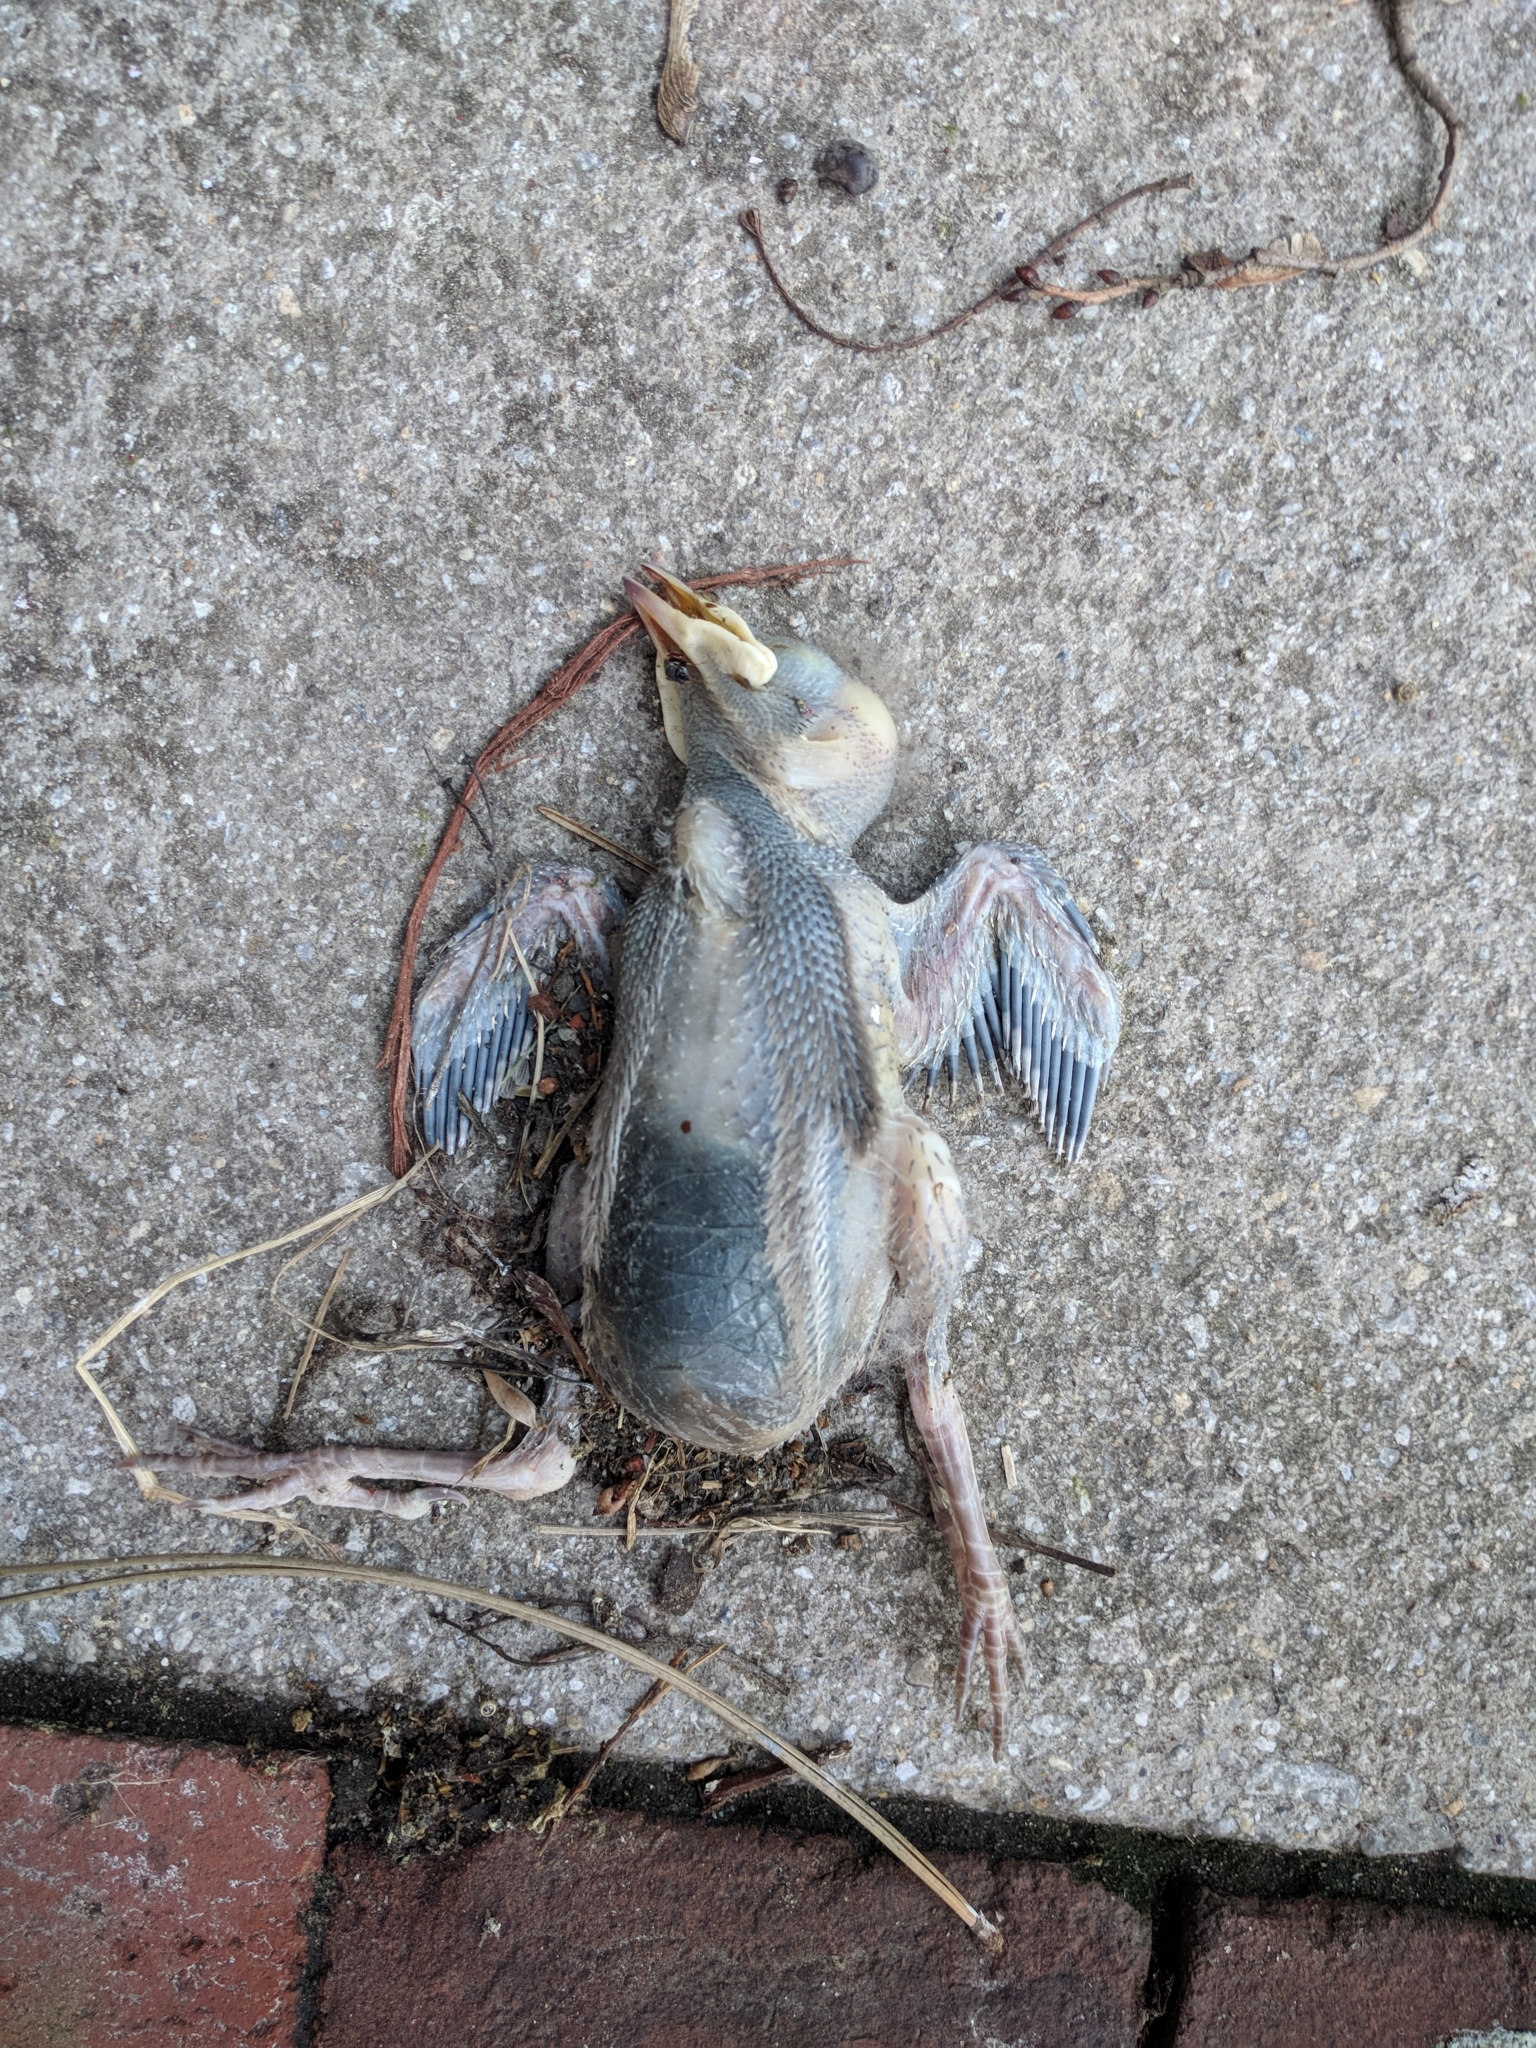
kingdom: Animalia
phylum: Chordata
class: Aves
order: Passeriformes
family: Sturnidae
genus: Sturnus
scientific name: Sturnus vulgaris
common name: Common starling
